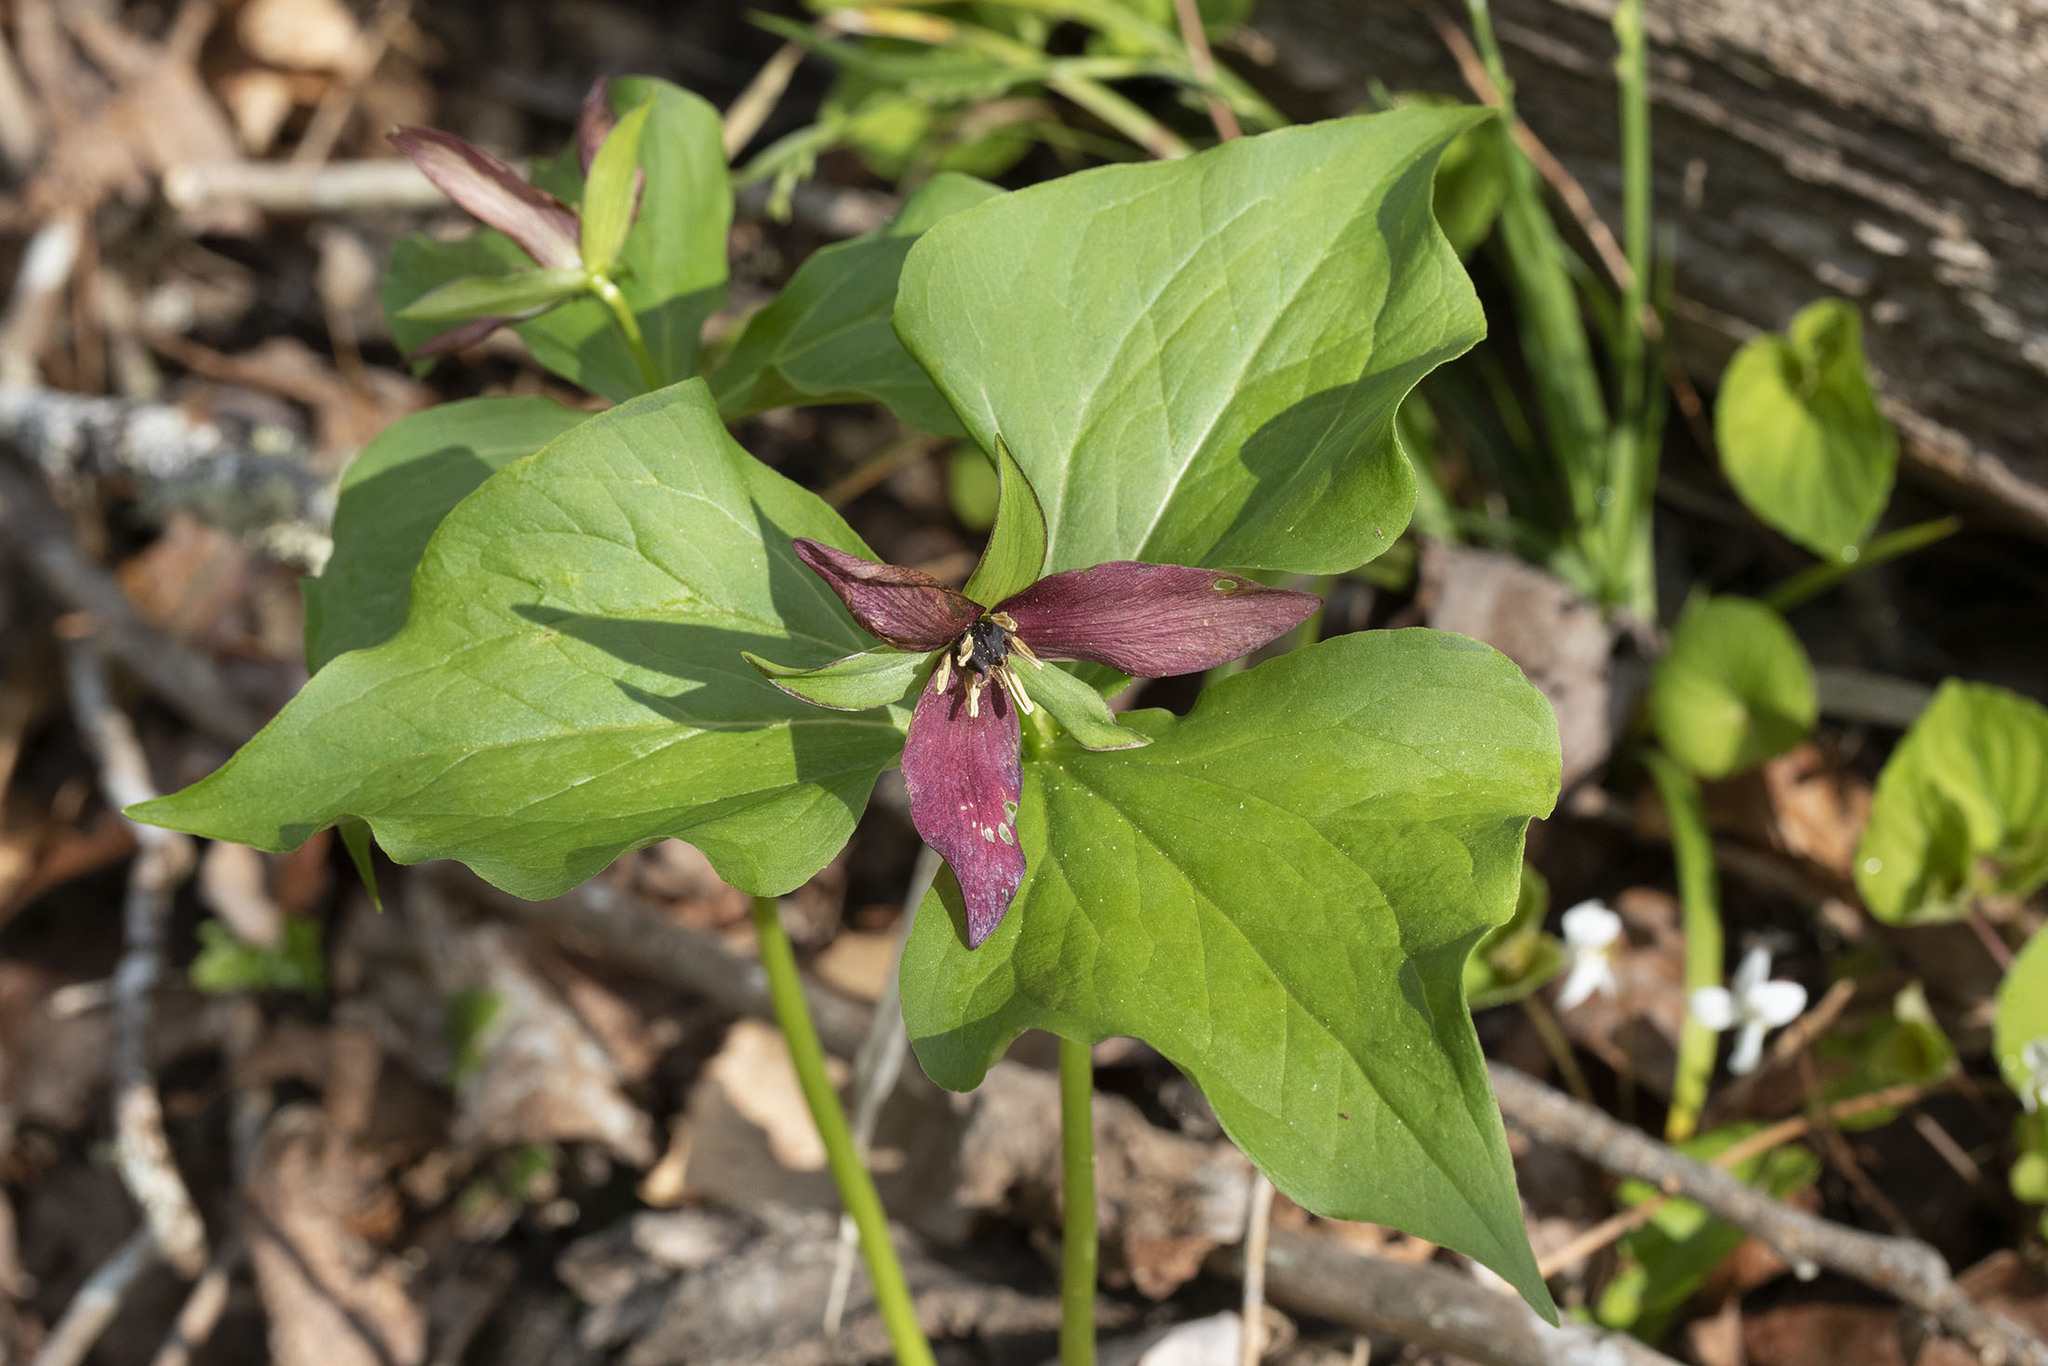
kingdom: Plantae
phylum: Tracheophyta
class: Liliopsida
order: Liliales
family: Melanthiaceae
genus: Trillium
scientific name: Trillium erectum
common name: Purple trillium
